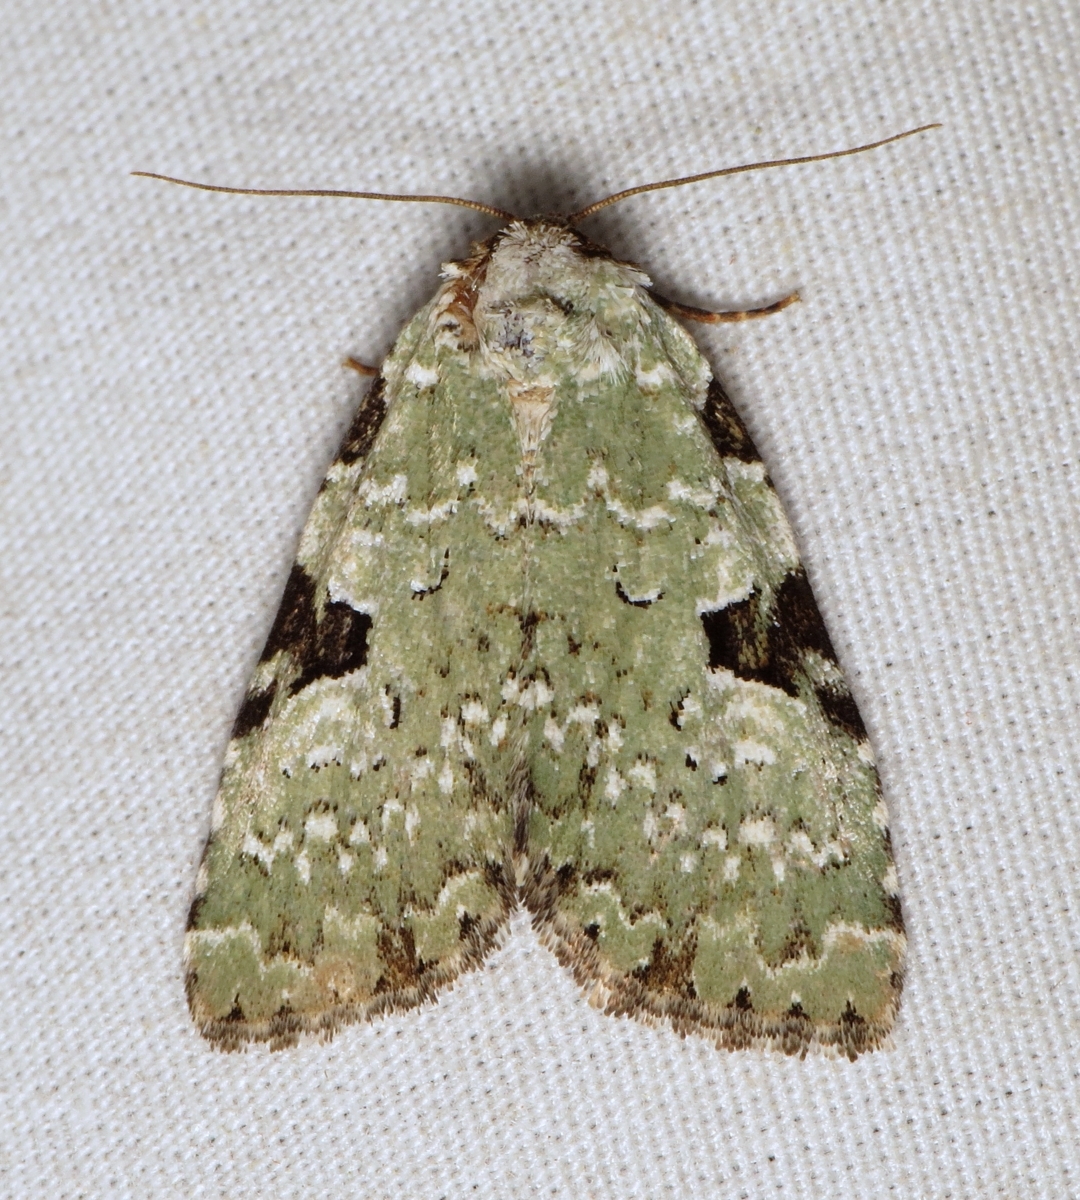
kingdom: Animalia
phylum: Arthropoda
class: Insecta
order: Lepidoptera
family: Noctuidae
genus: Leuconycta
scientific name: Leuconycta diphteroides
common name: Green leuconycta moth
